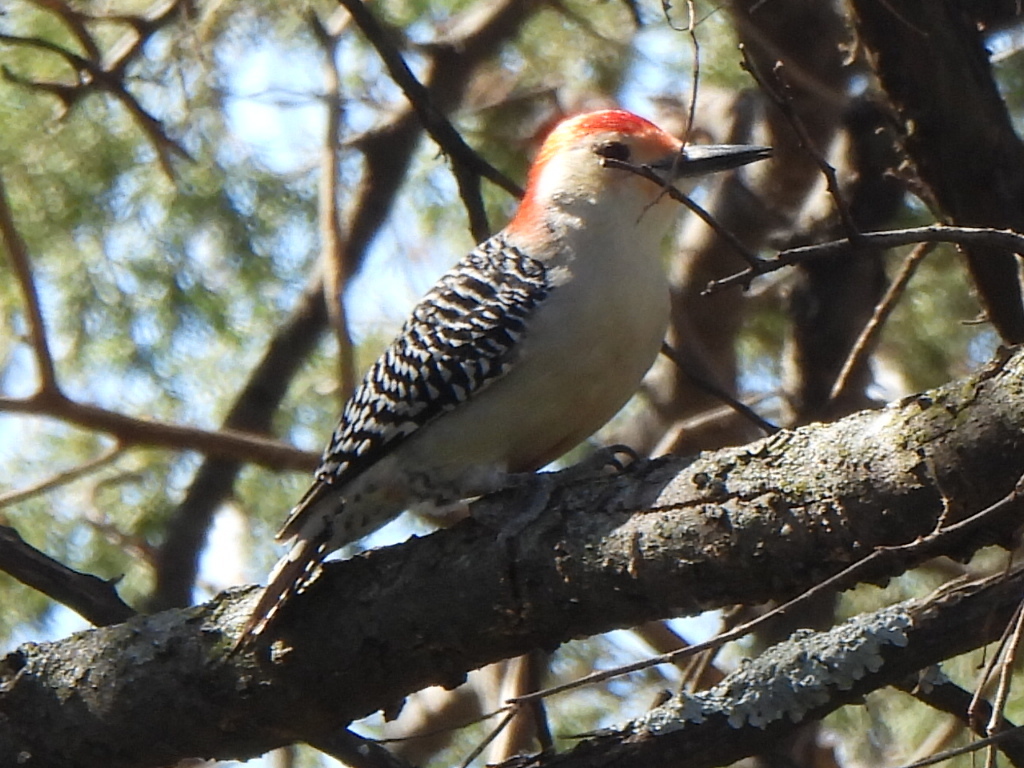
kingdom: Animalia
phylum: Chordata
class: Aves
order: Piciformes
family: Picidae
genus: Melanerpes
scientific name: Melanerpes carolinus
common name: Red-bellied woodpecker
